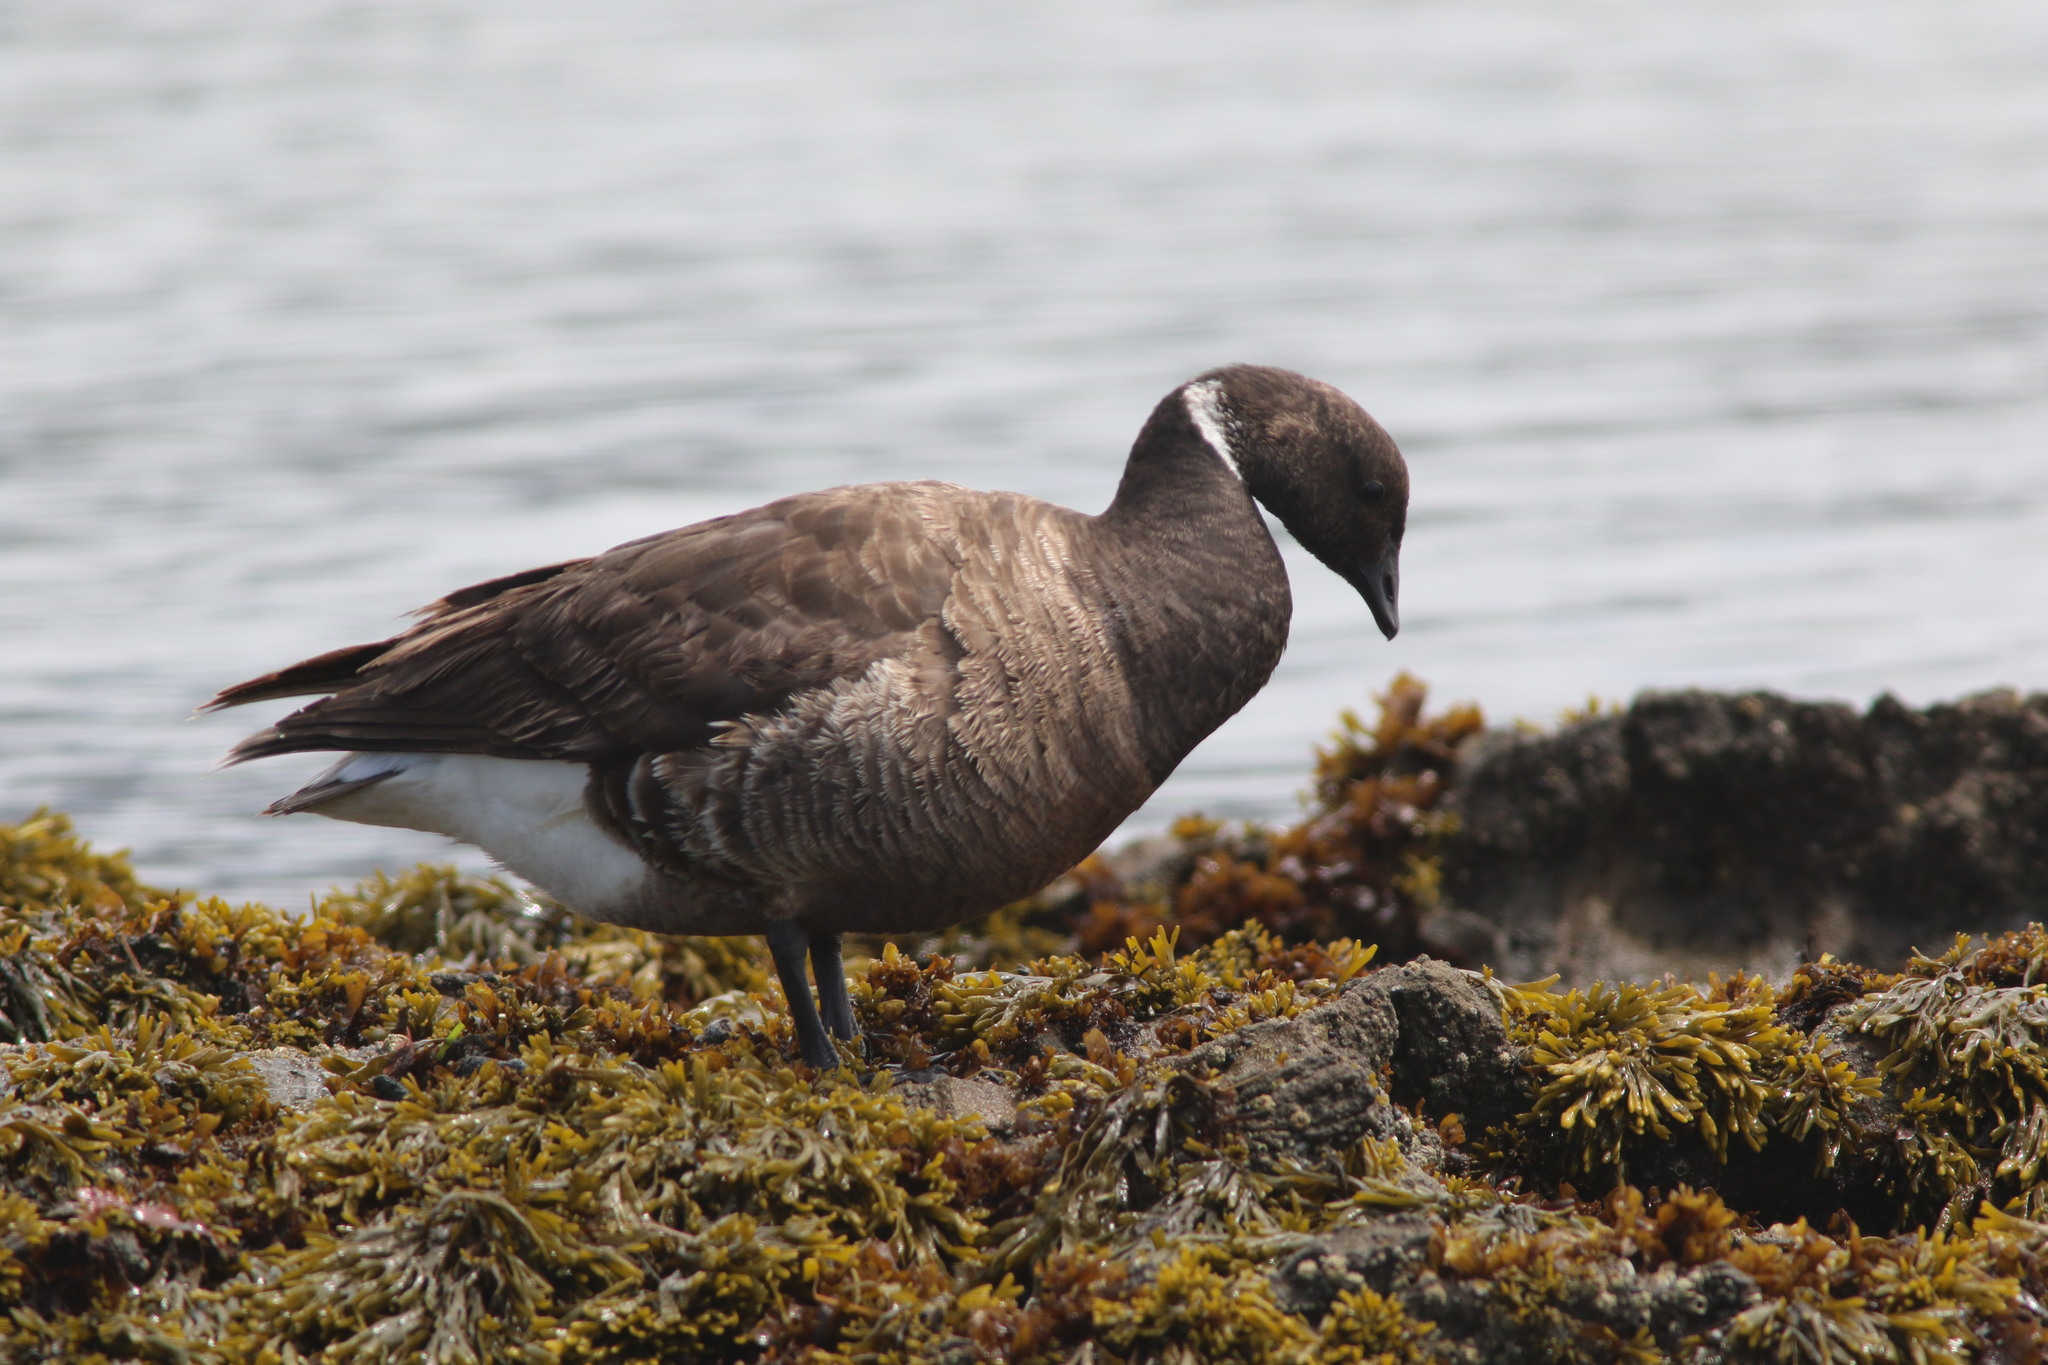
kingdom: Animalia
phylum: Chordata
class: Aves
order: Anseriformes
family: Anatidae
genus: Branta
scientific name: Branta bernicla
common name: Brant goose
